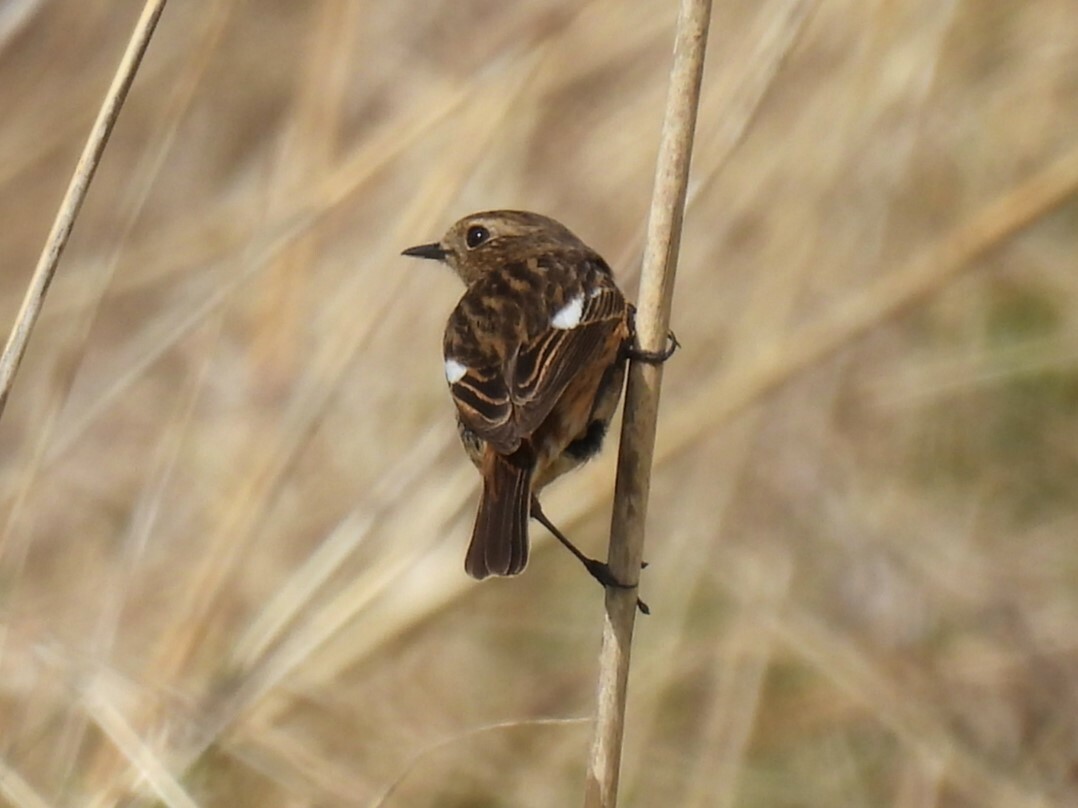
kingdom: Animalia
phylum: Chordata
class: Aves
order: Passeriformes
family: Muscicapidae
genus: Saxicola
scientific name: Saxicola rubicola
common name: European stonechat
